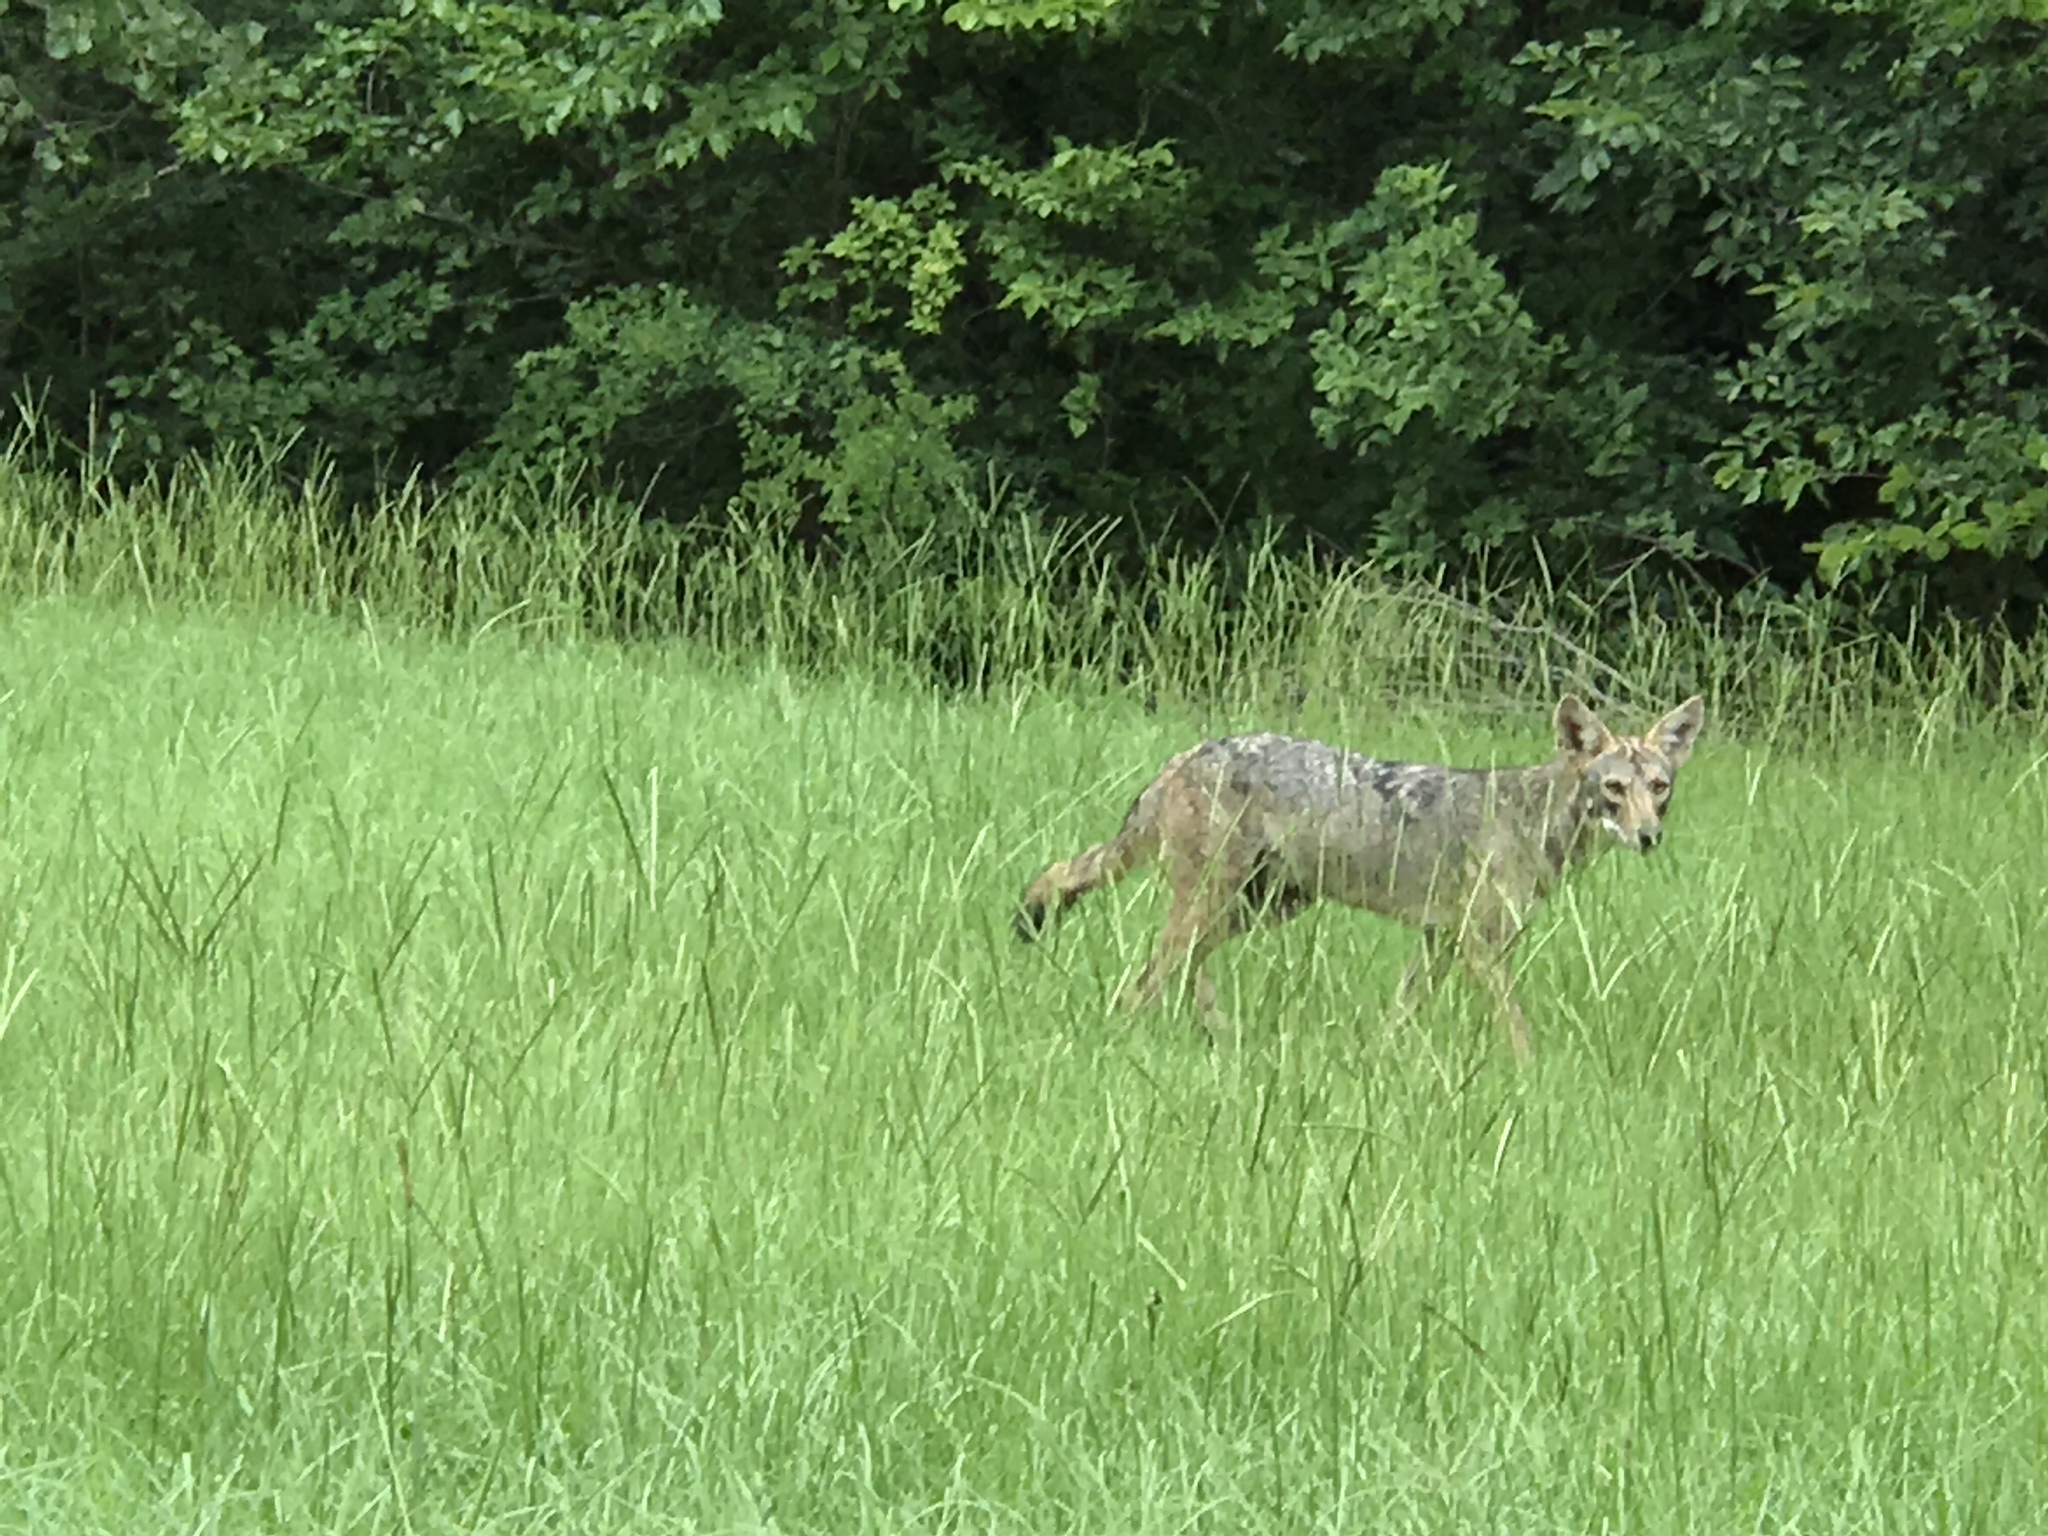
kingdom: Animalia
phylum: Chordata
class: Mammalia
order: Carnivora
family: Canidae
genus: Canis
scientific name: Canis latrans
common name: Coyote
